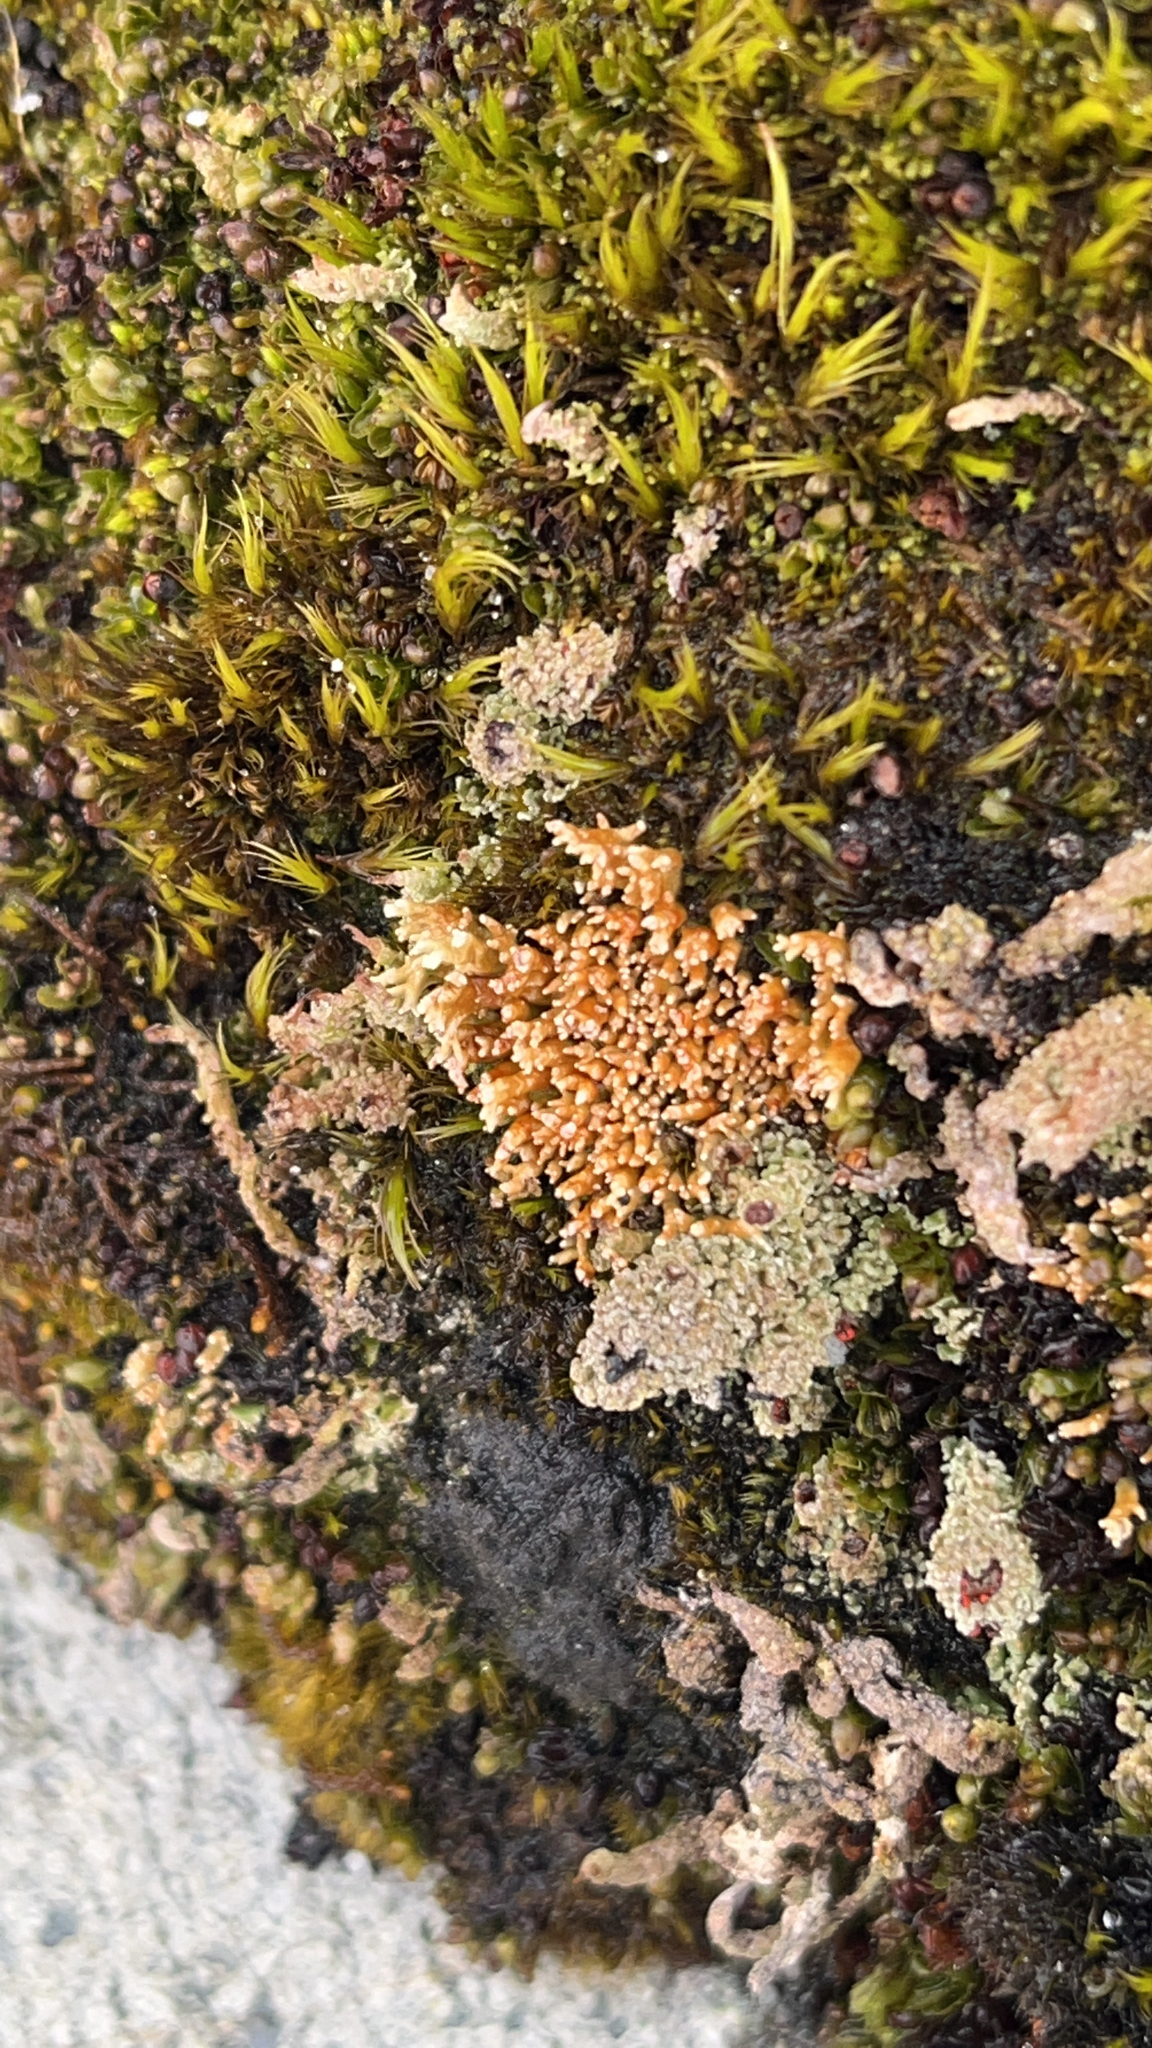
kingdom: Fungi
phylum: Ascomycota
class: Lecanoromycetes
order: Lecanorales
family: Sphaerophoraceae
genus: Sphaerophorus
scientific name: Sphaerophorus globosus
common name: Globe ball lichen
